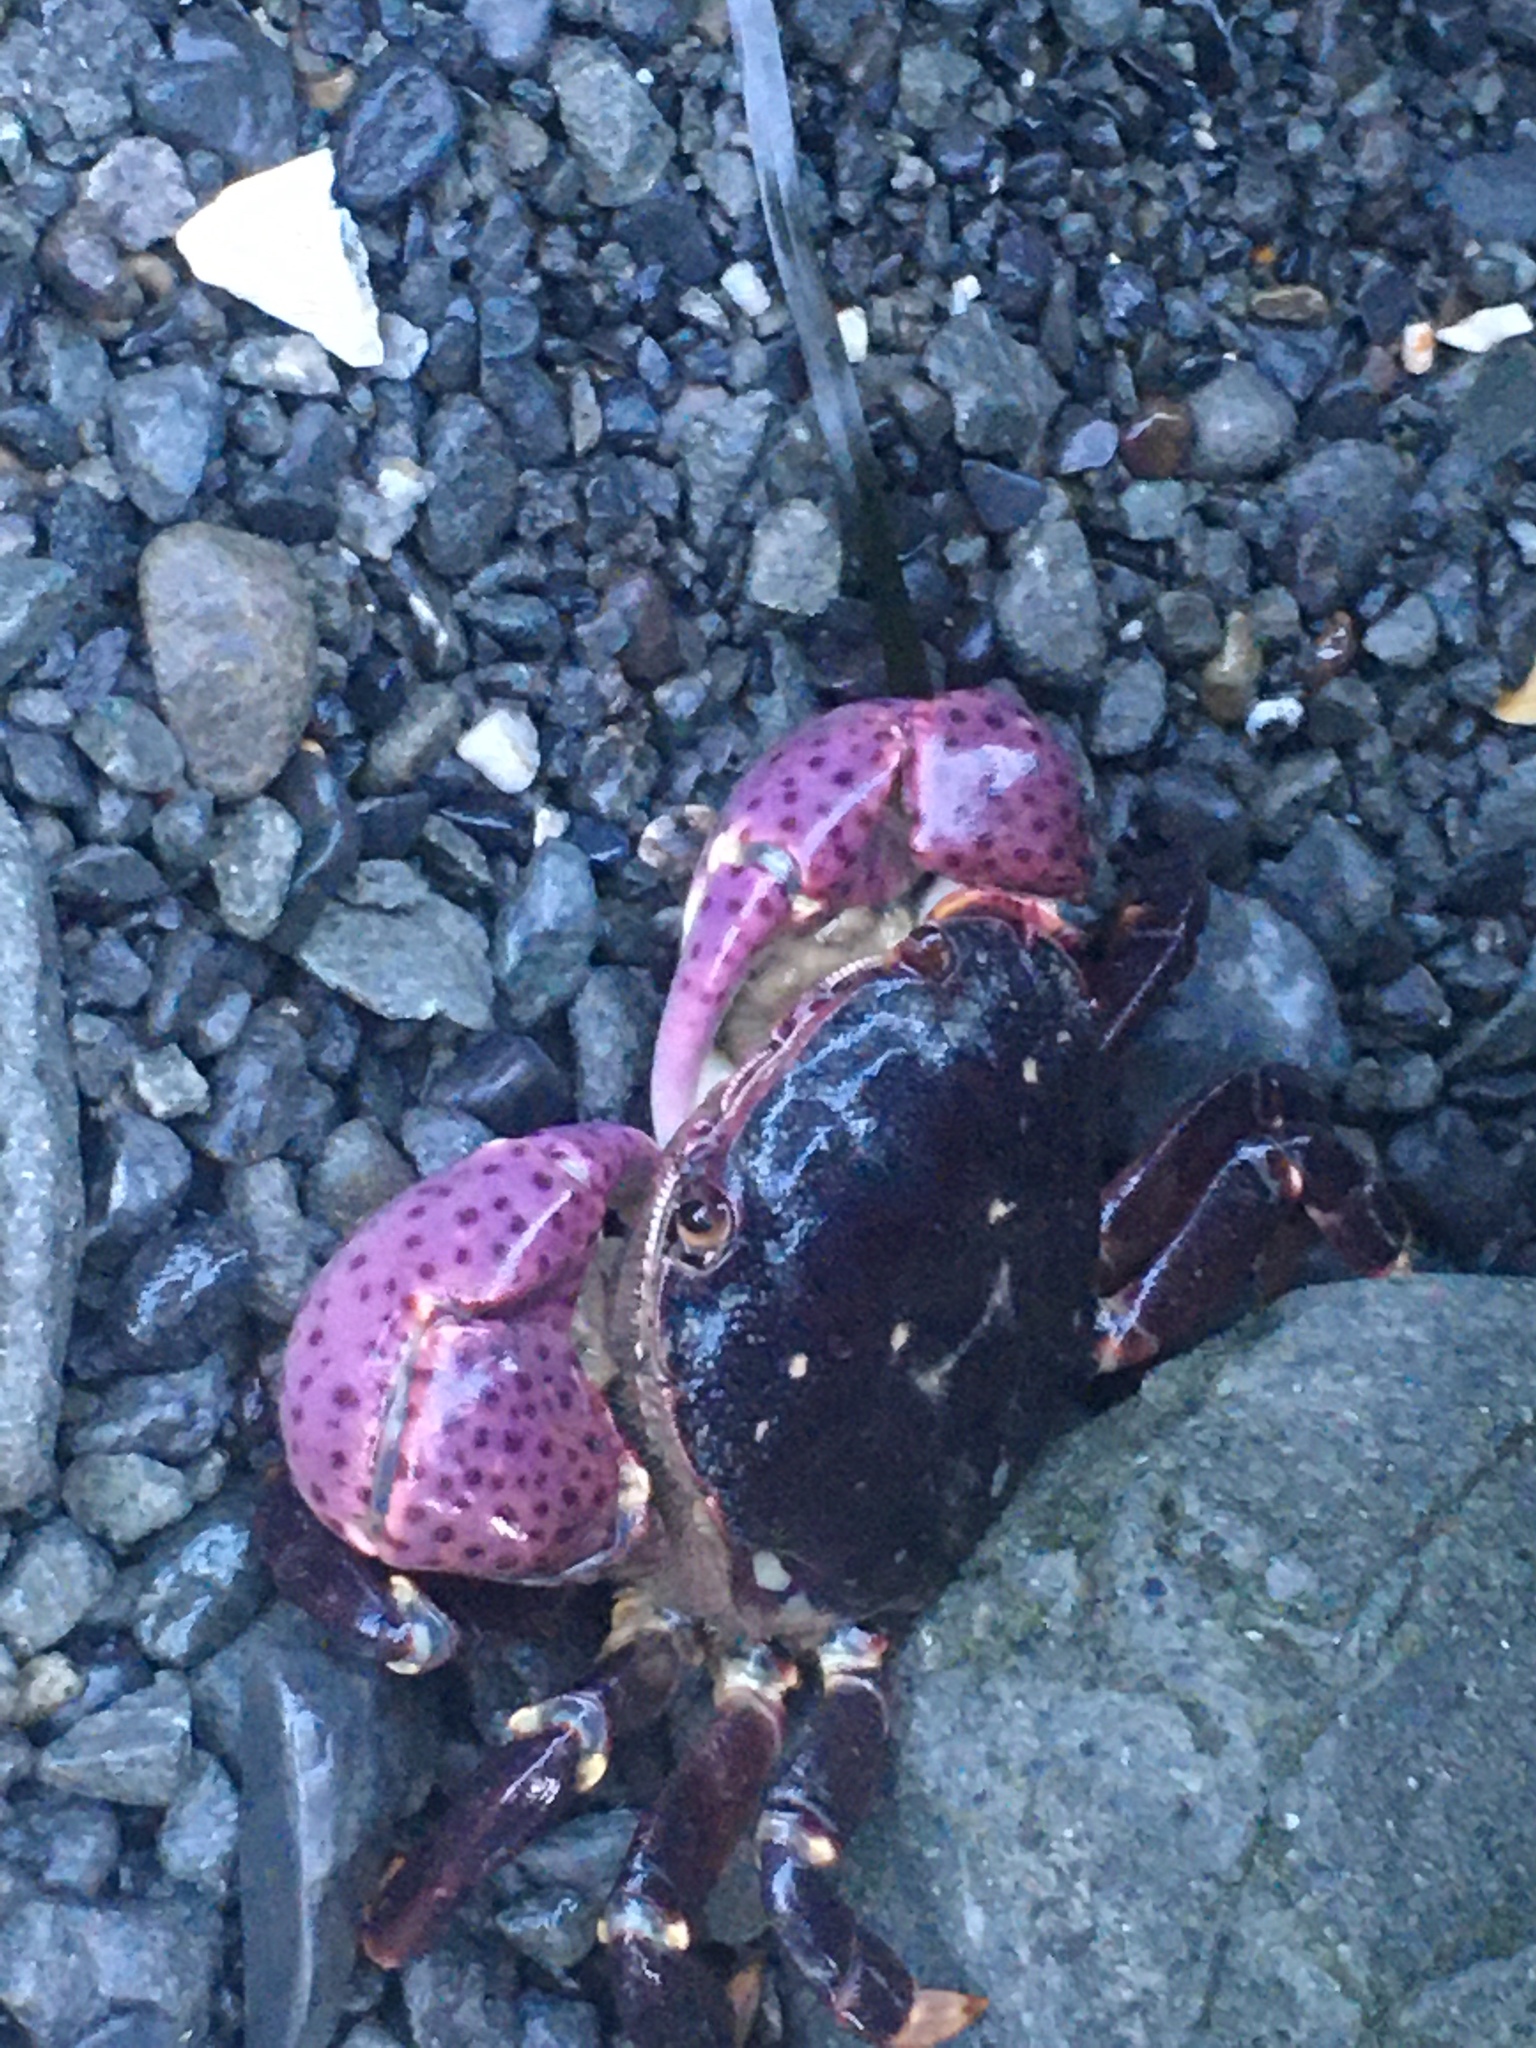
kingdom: Animalia
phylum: Arthropoda
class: Malacostraca
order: Decapoda
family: Varunidae
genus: Hemigrapsus
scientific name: Hemigrapsus nudus
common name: Purple shore crab
